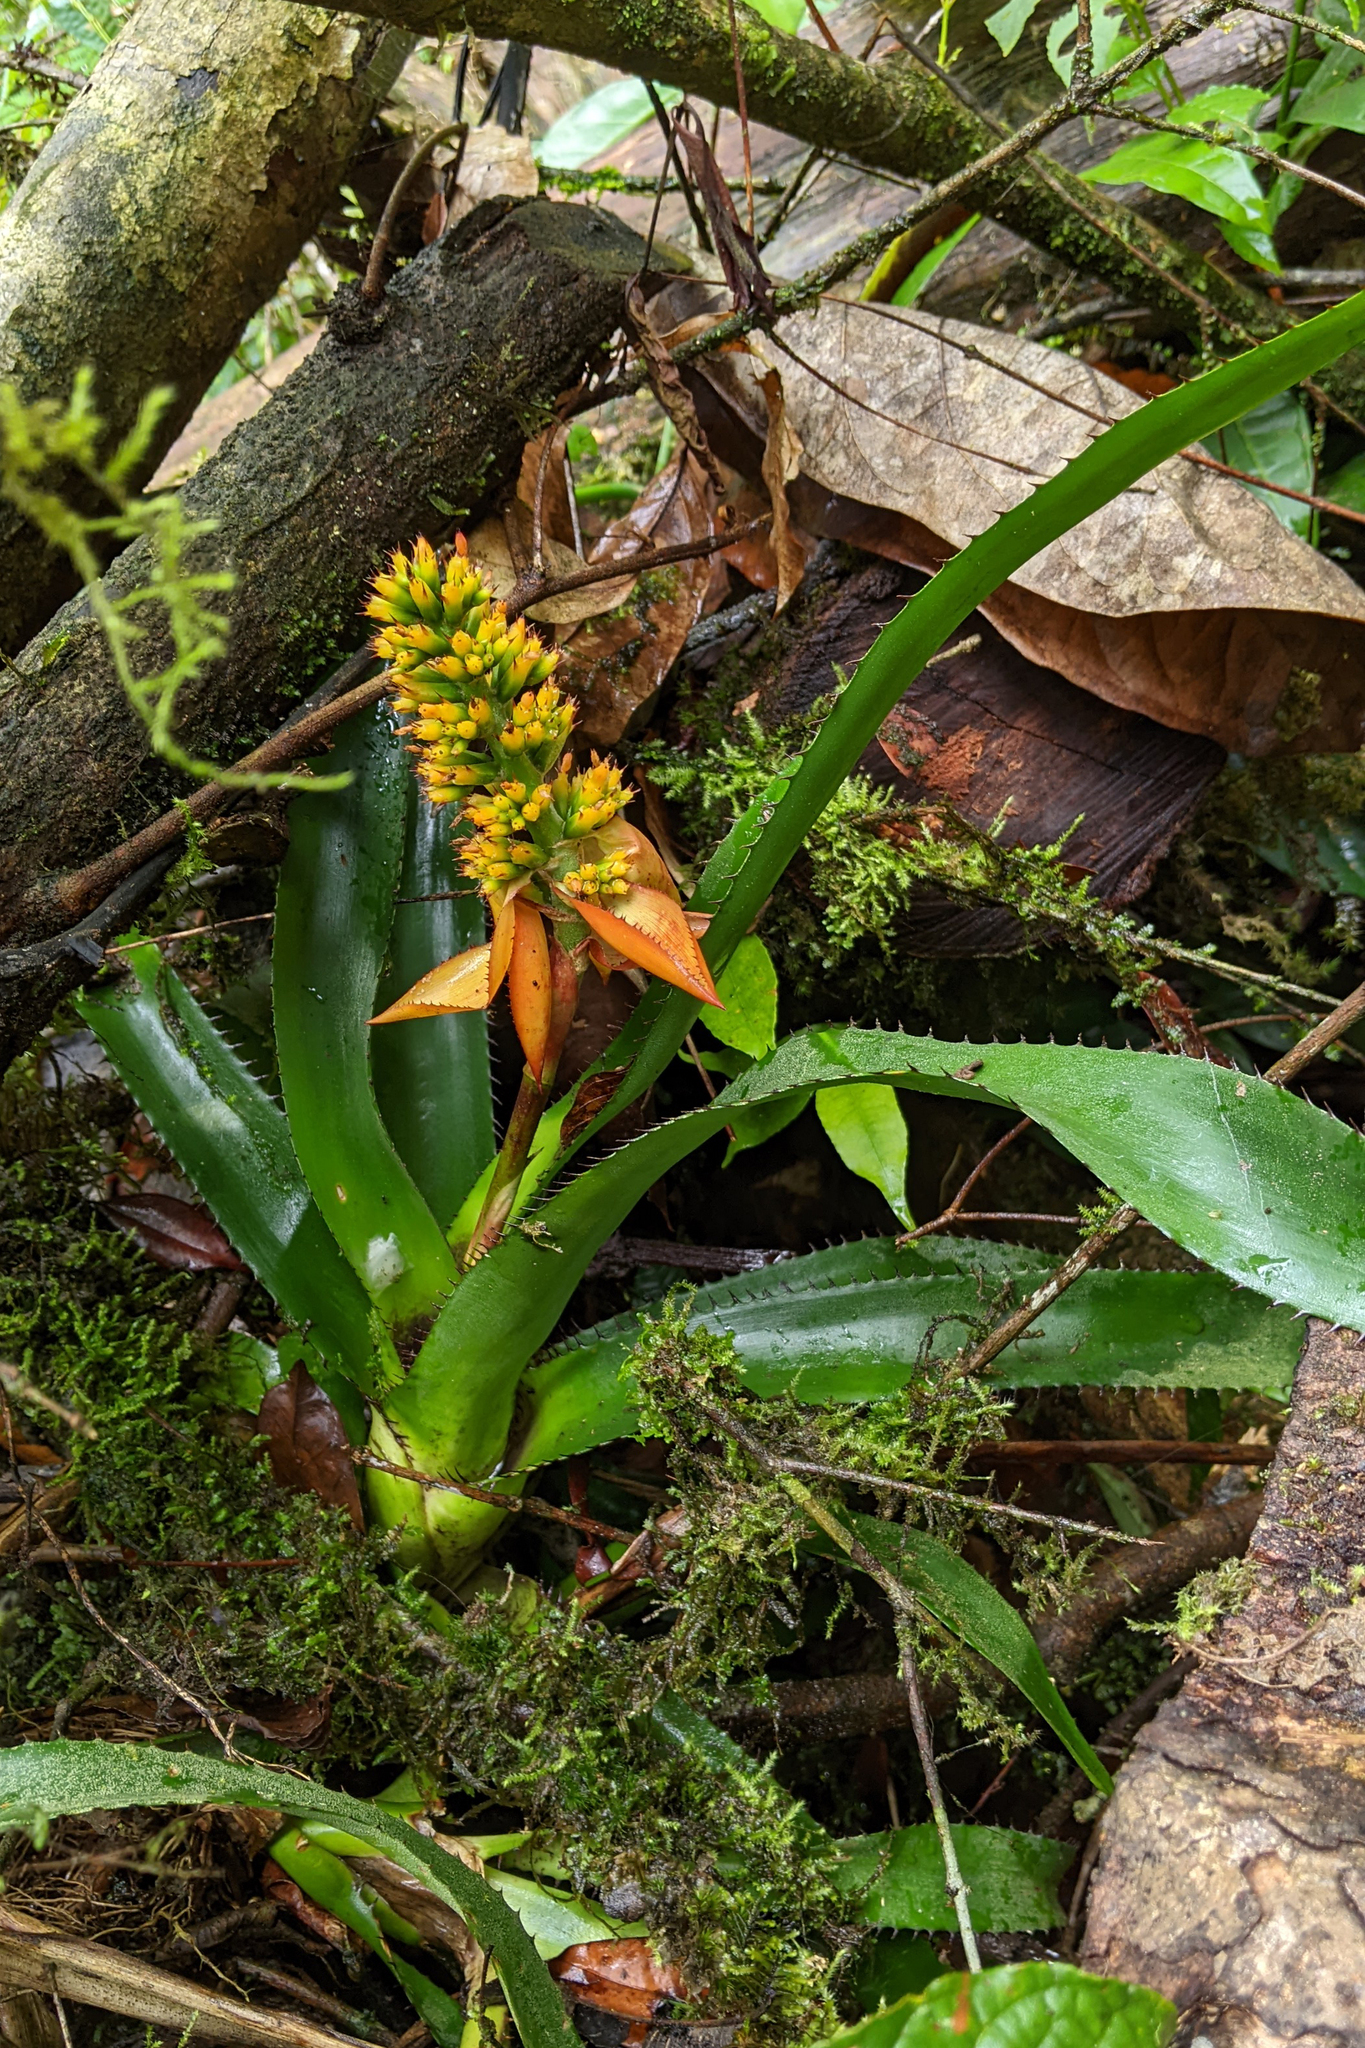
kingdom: Plantae
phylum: Tracheophyta
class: Liliopsida
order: Poales
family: Bromeliaceae
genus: Aechmea
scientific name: Aechmea mertensii
